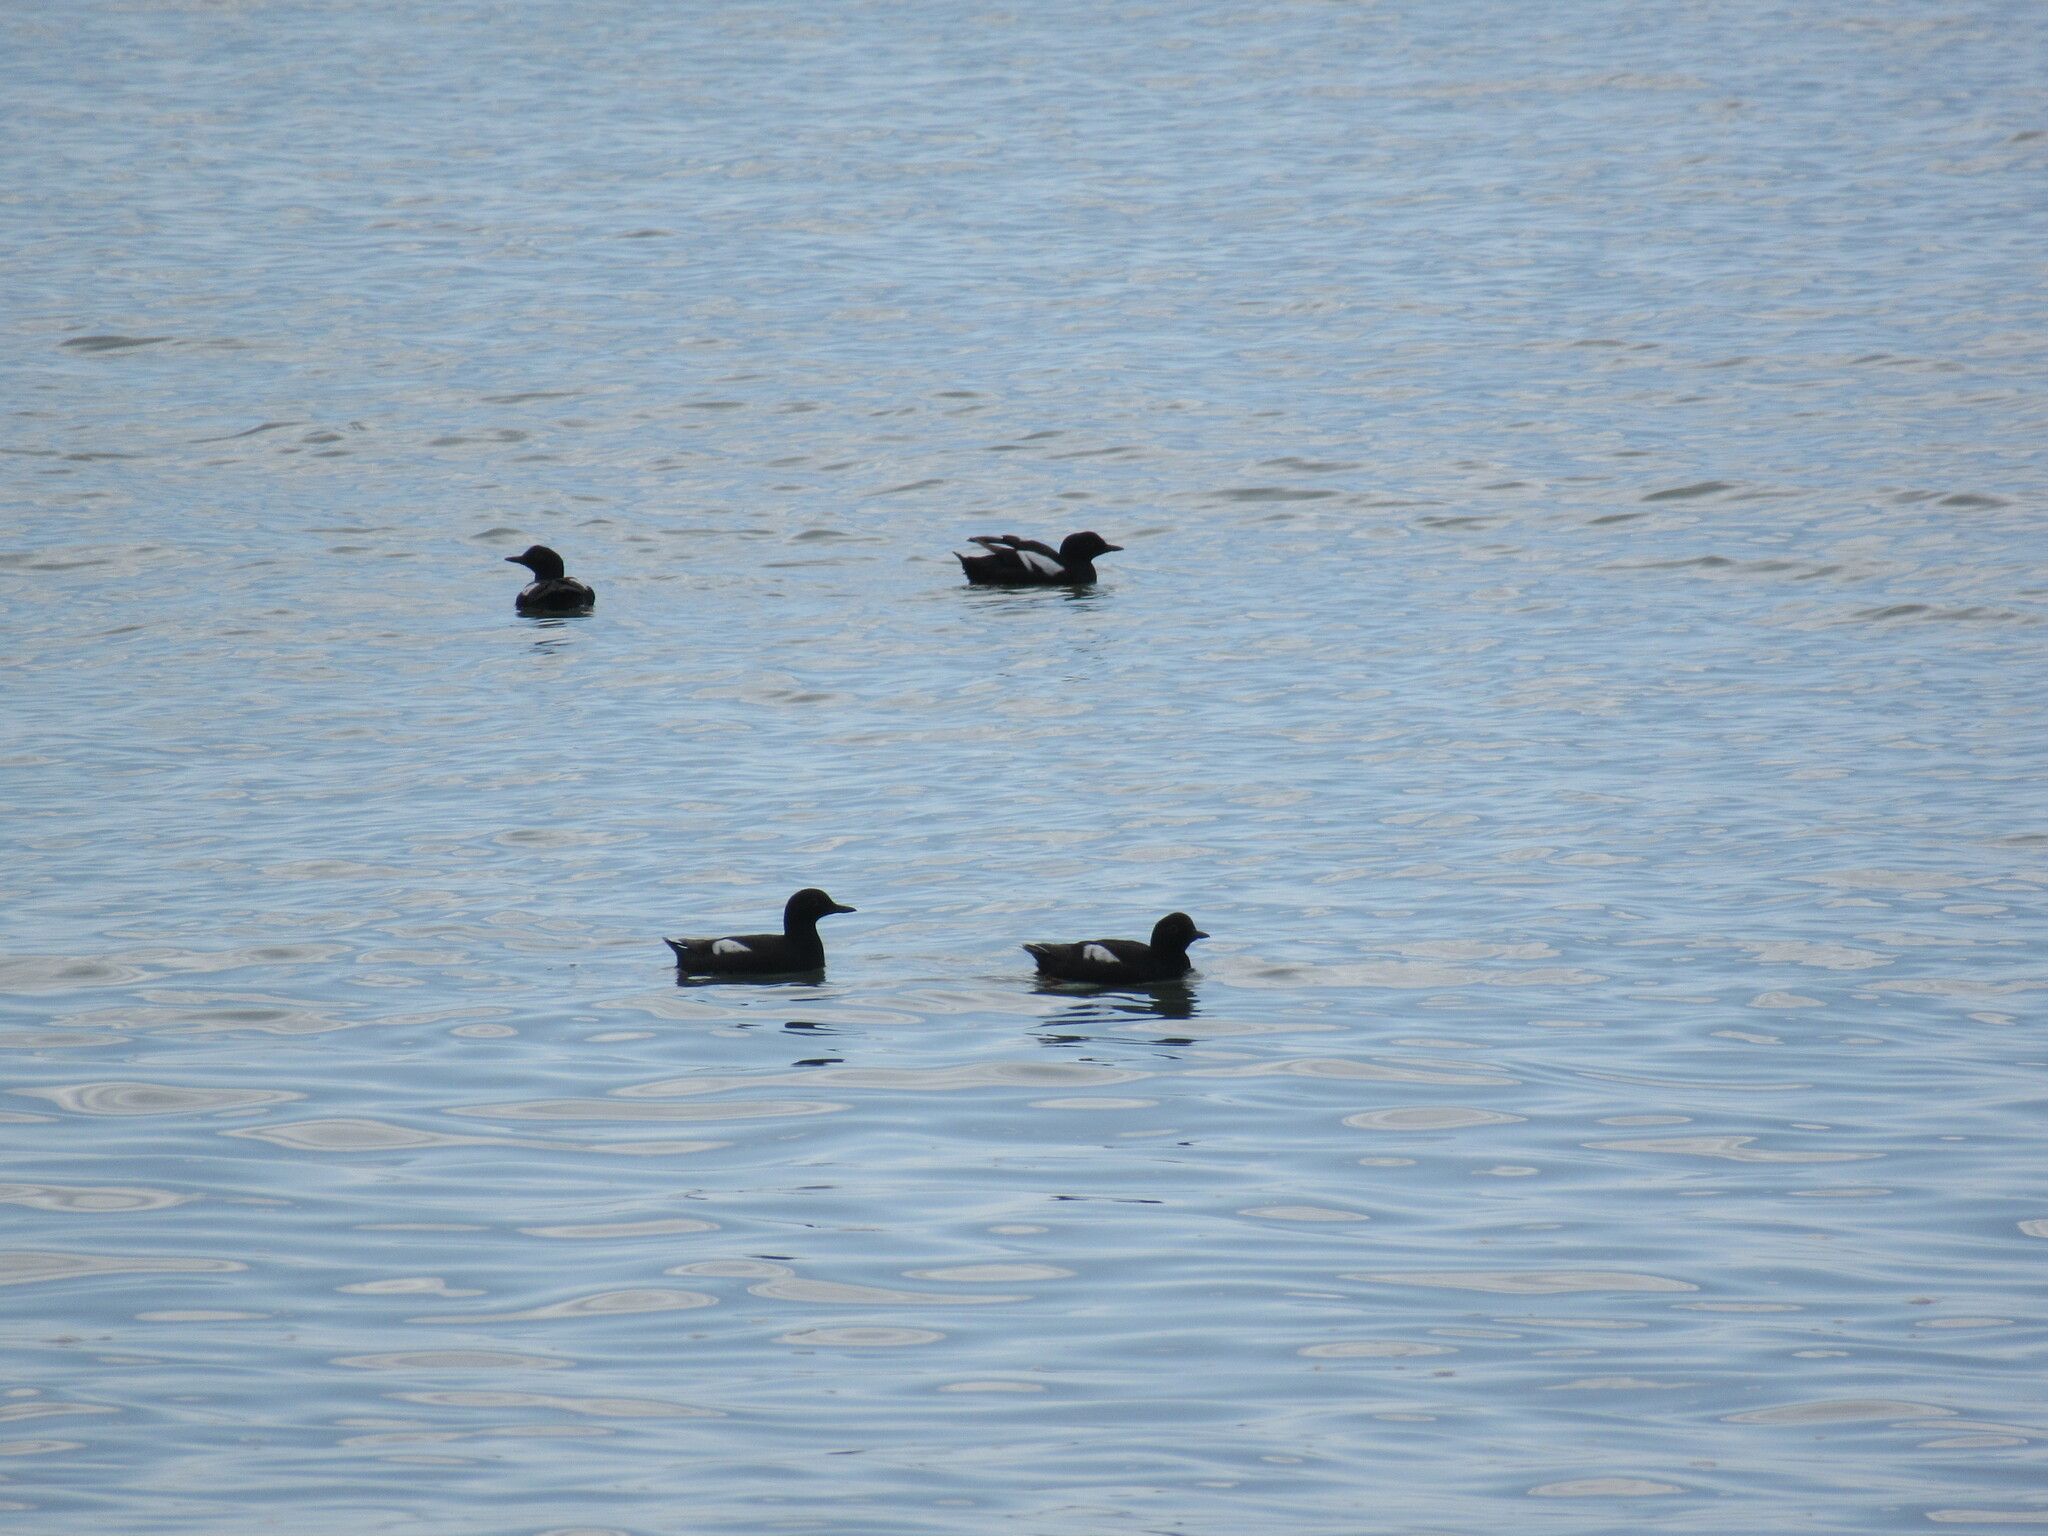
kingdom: Animalia
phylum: Chordata
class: Aves
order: Charadriiformes
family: Alcidae
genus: Cepphus
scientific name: Cepphus columba
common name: Pigeon guillemot
